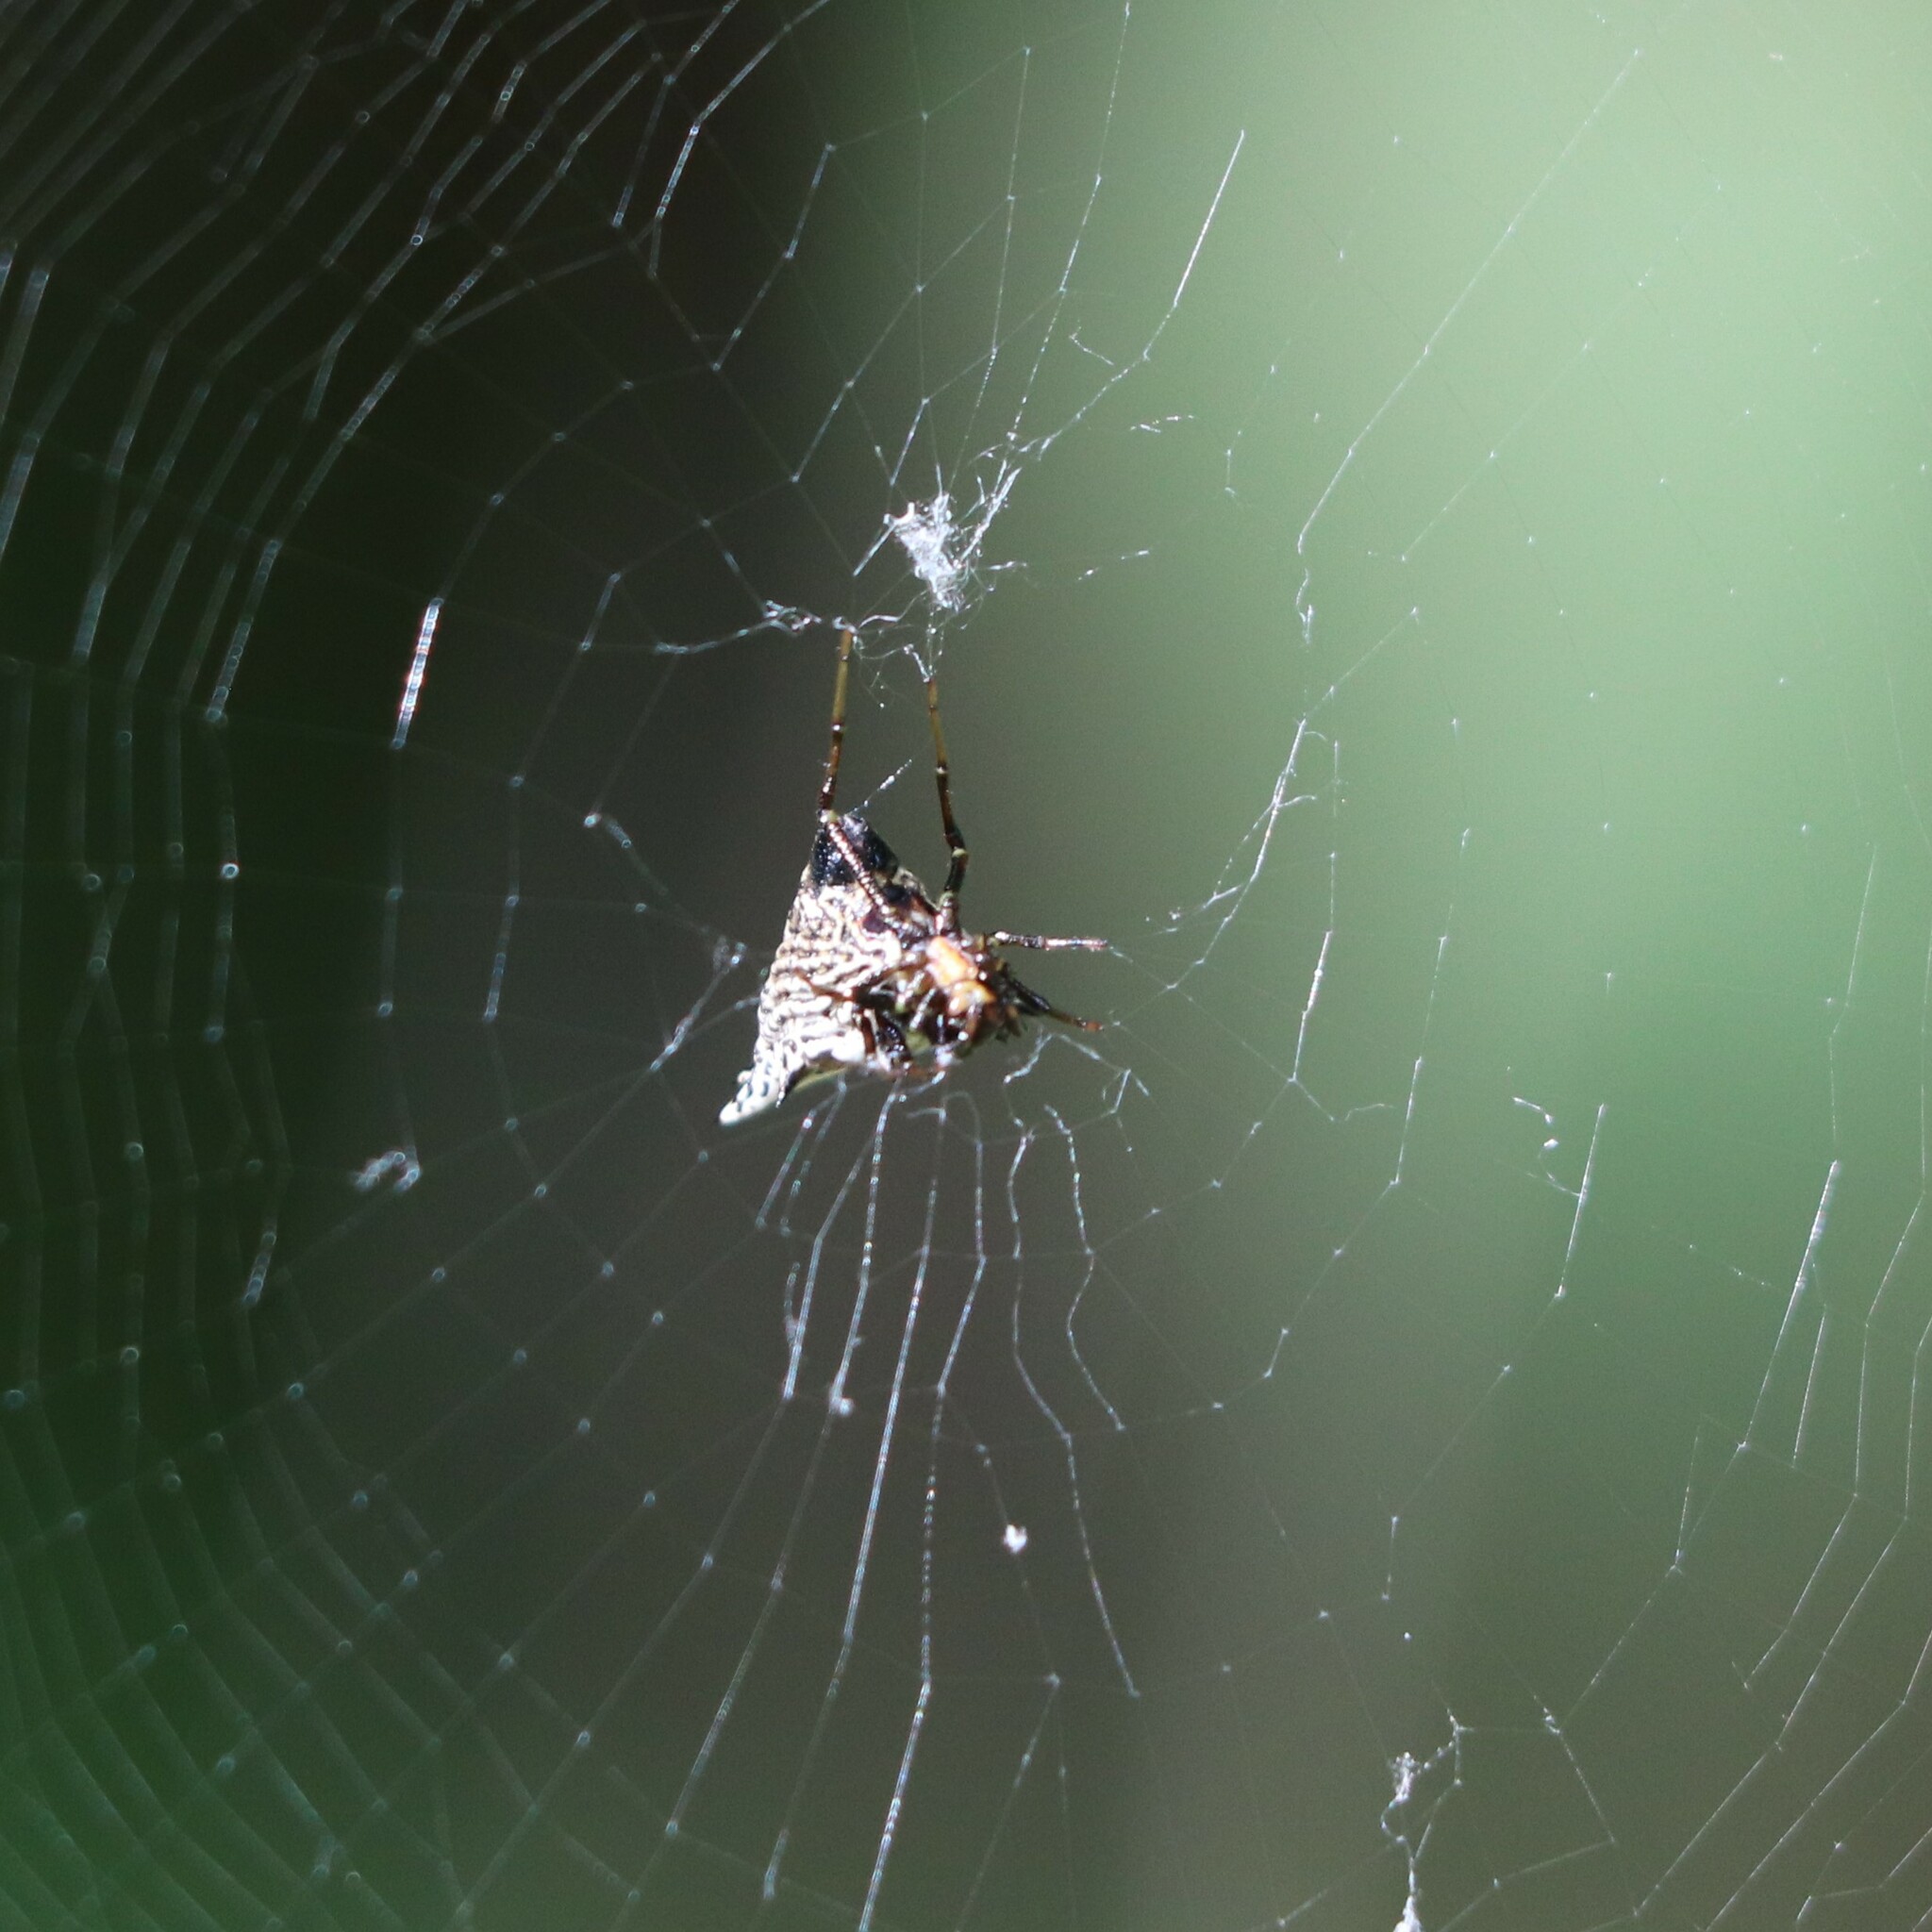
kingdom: Animalia
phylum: Arthropoda
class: Arachnida
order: Araneae
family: Araneidae
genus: Micrathena
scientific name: Micrathena gracilis
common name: Orb weavers
